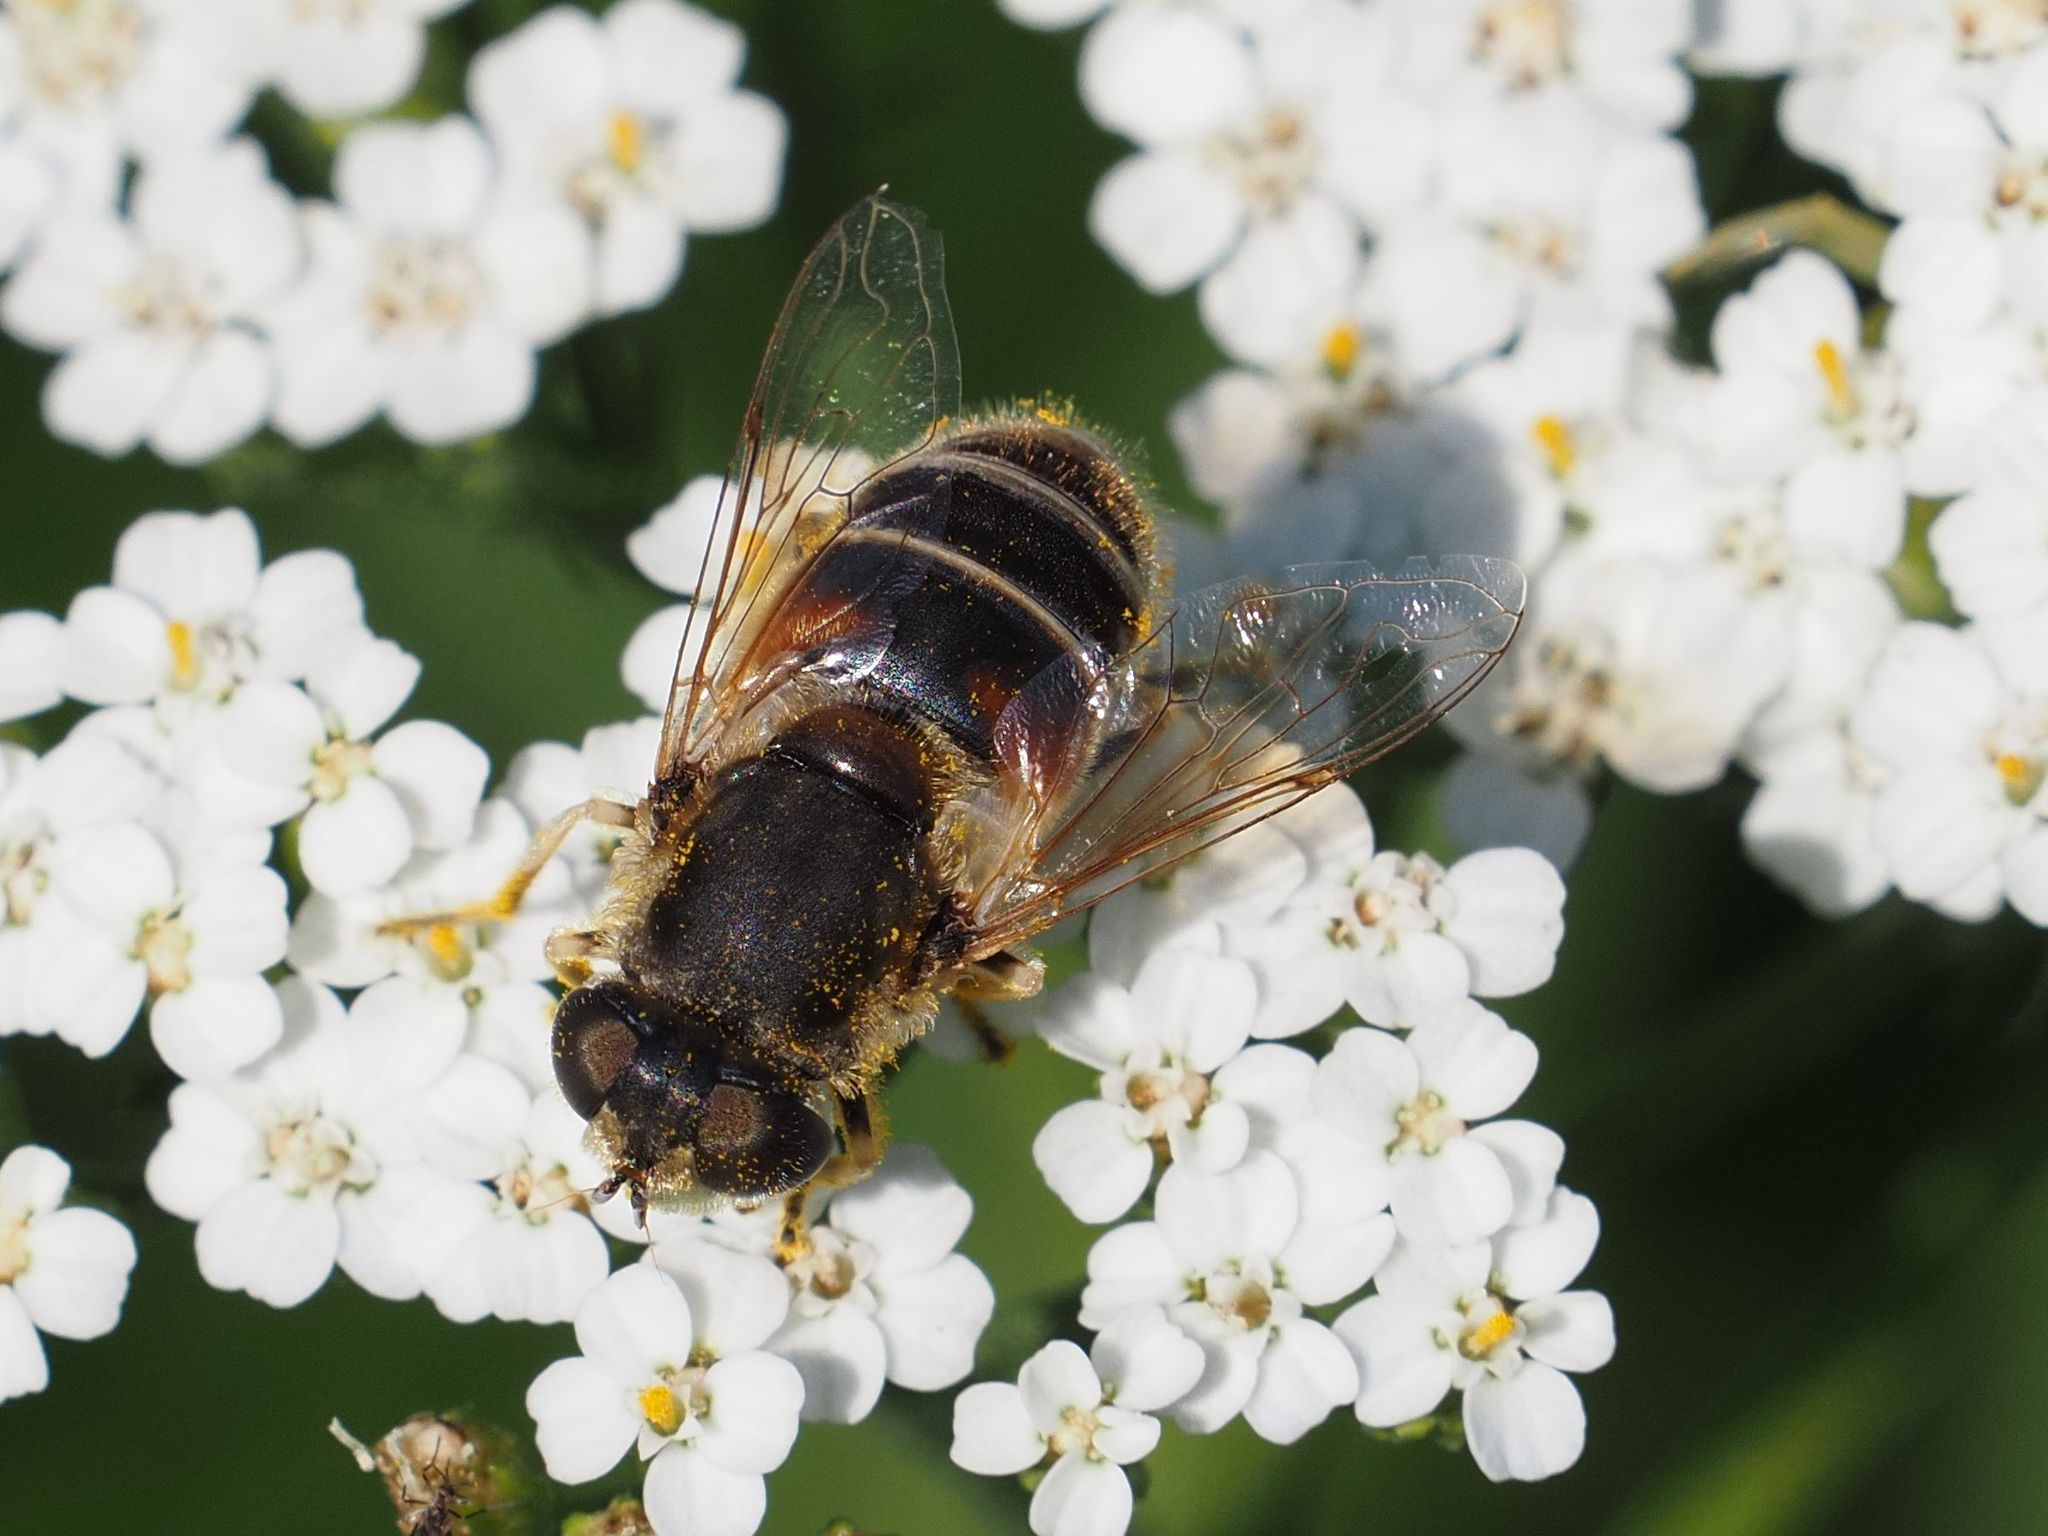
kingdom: Animalia
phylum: Arthropoda
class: Insecta
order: Diptera
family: Syrphidae
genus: Eristalis
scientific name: Eristalis arbustorum
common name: Hover fly
